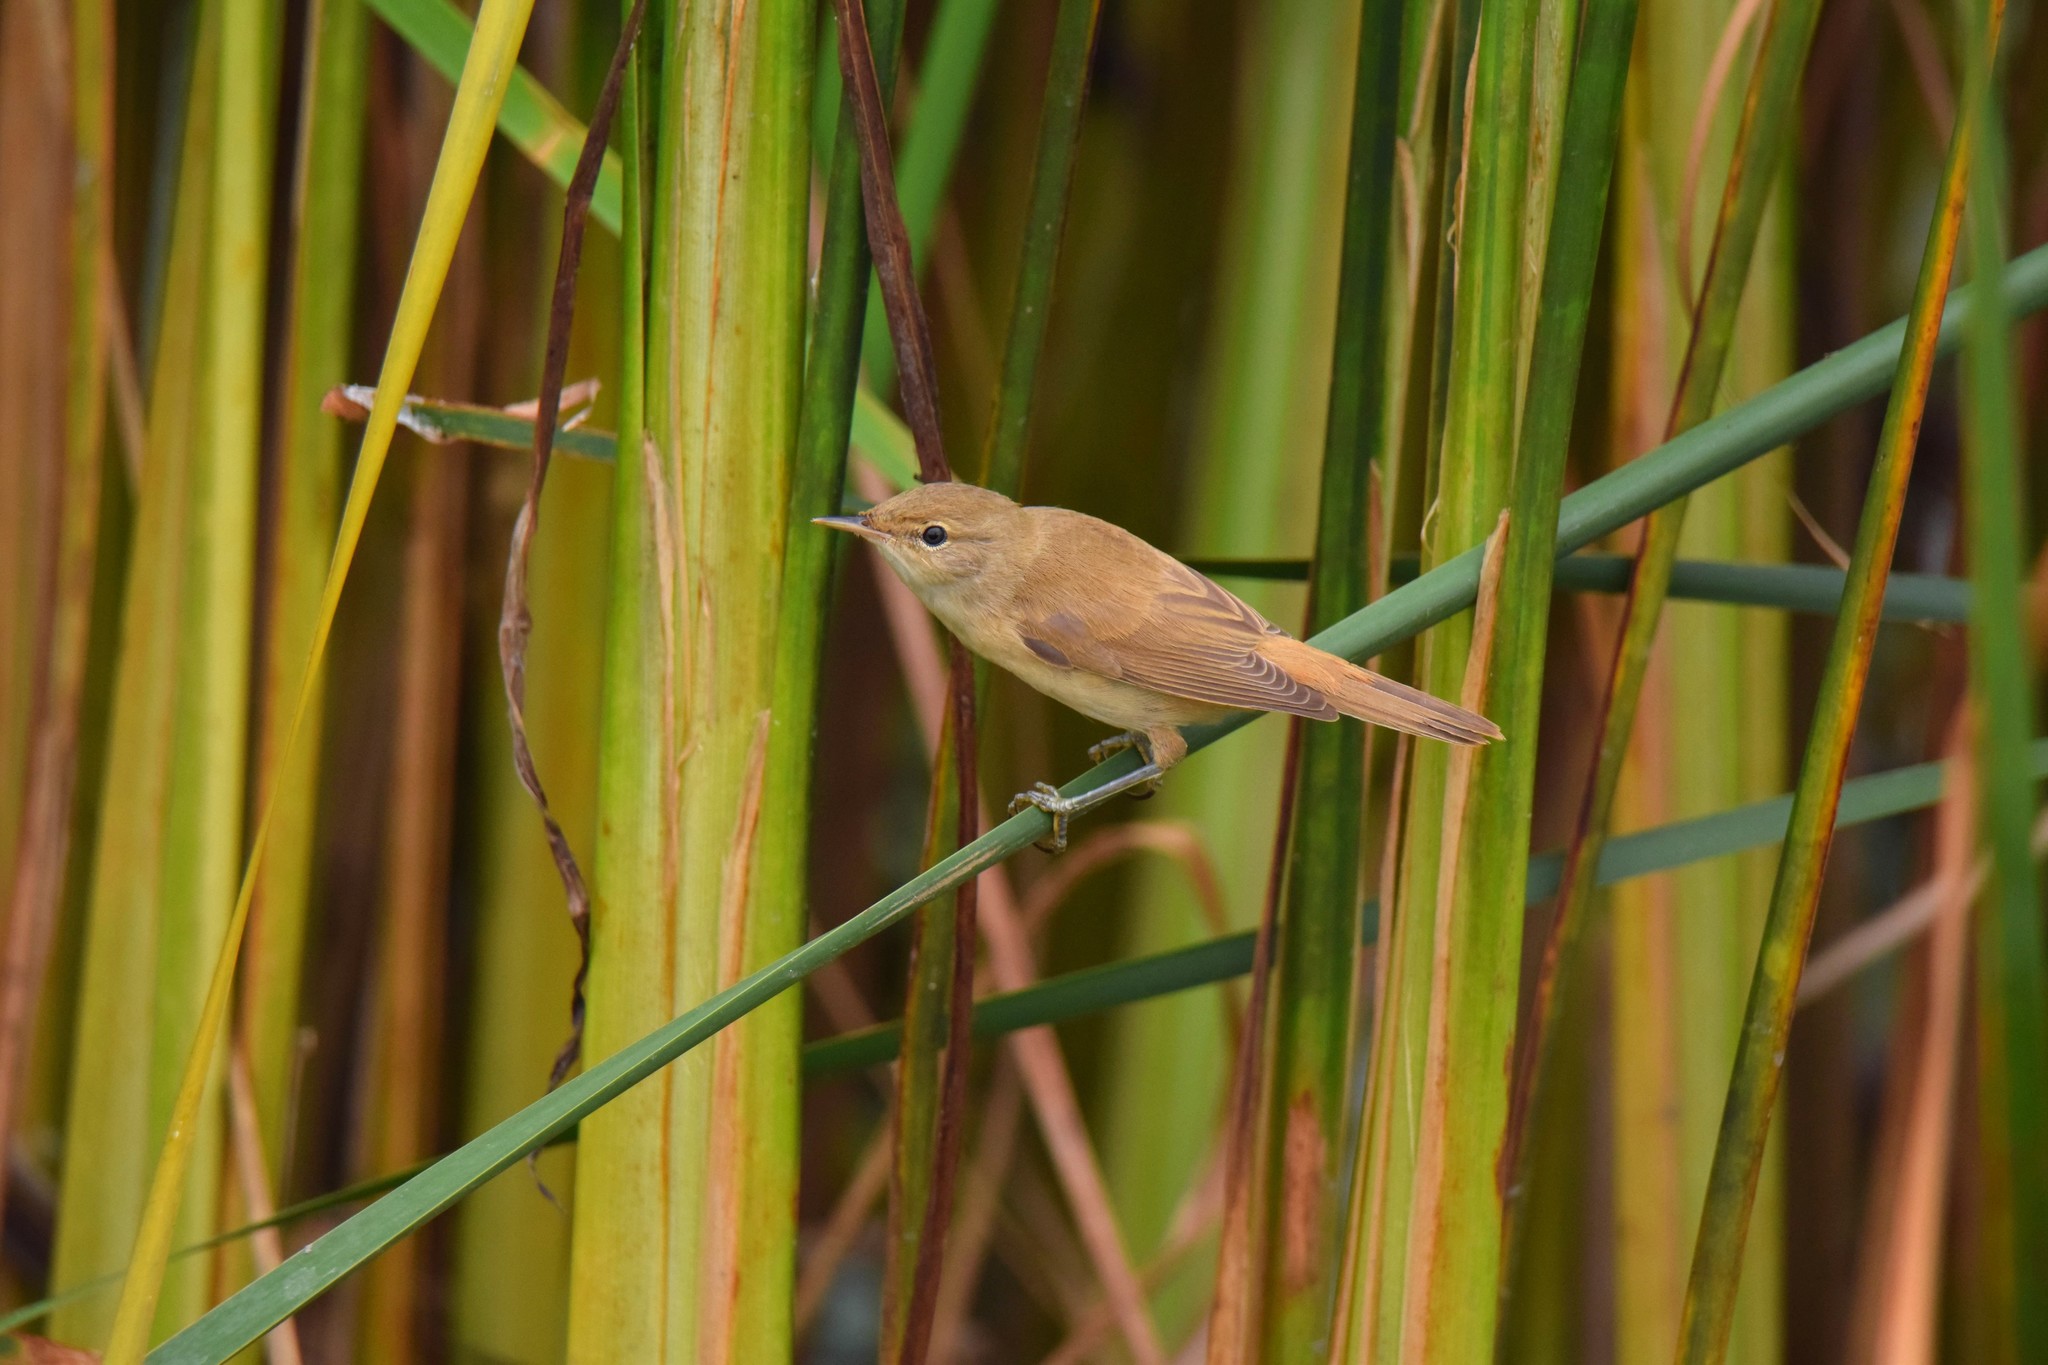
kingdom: Animalia
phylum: Chordata
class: Aves
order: Passeriformes
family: Acrocephalidae
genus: Acrocephalus
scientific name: Acrocephalus scirpaceus
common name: Eurasian reed warbler
